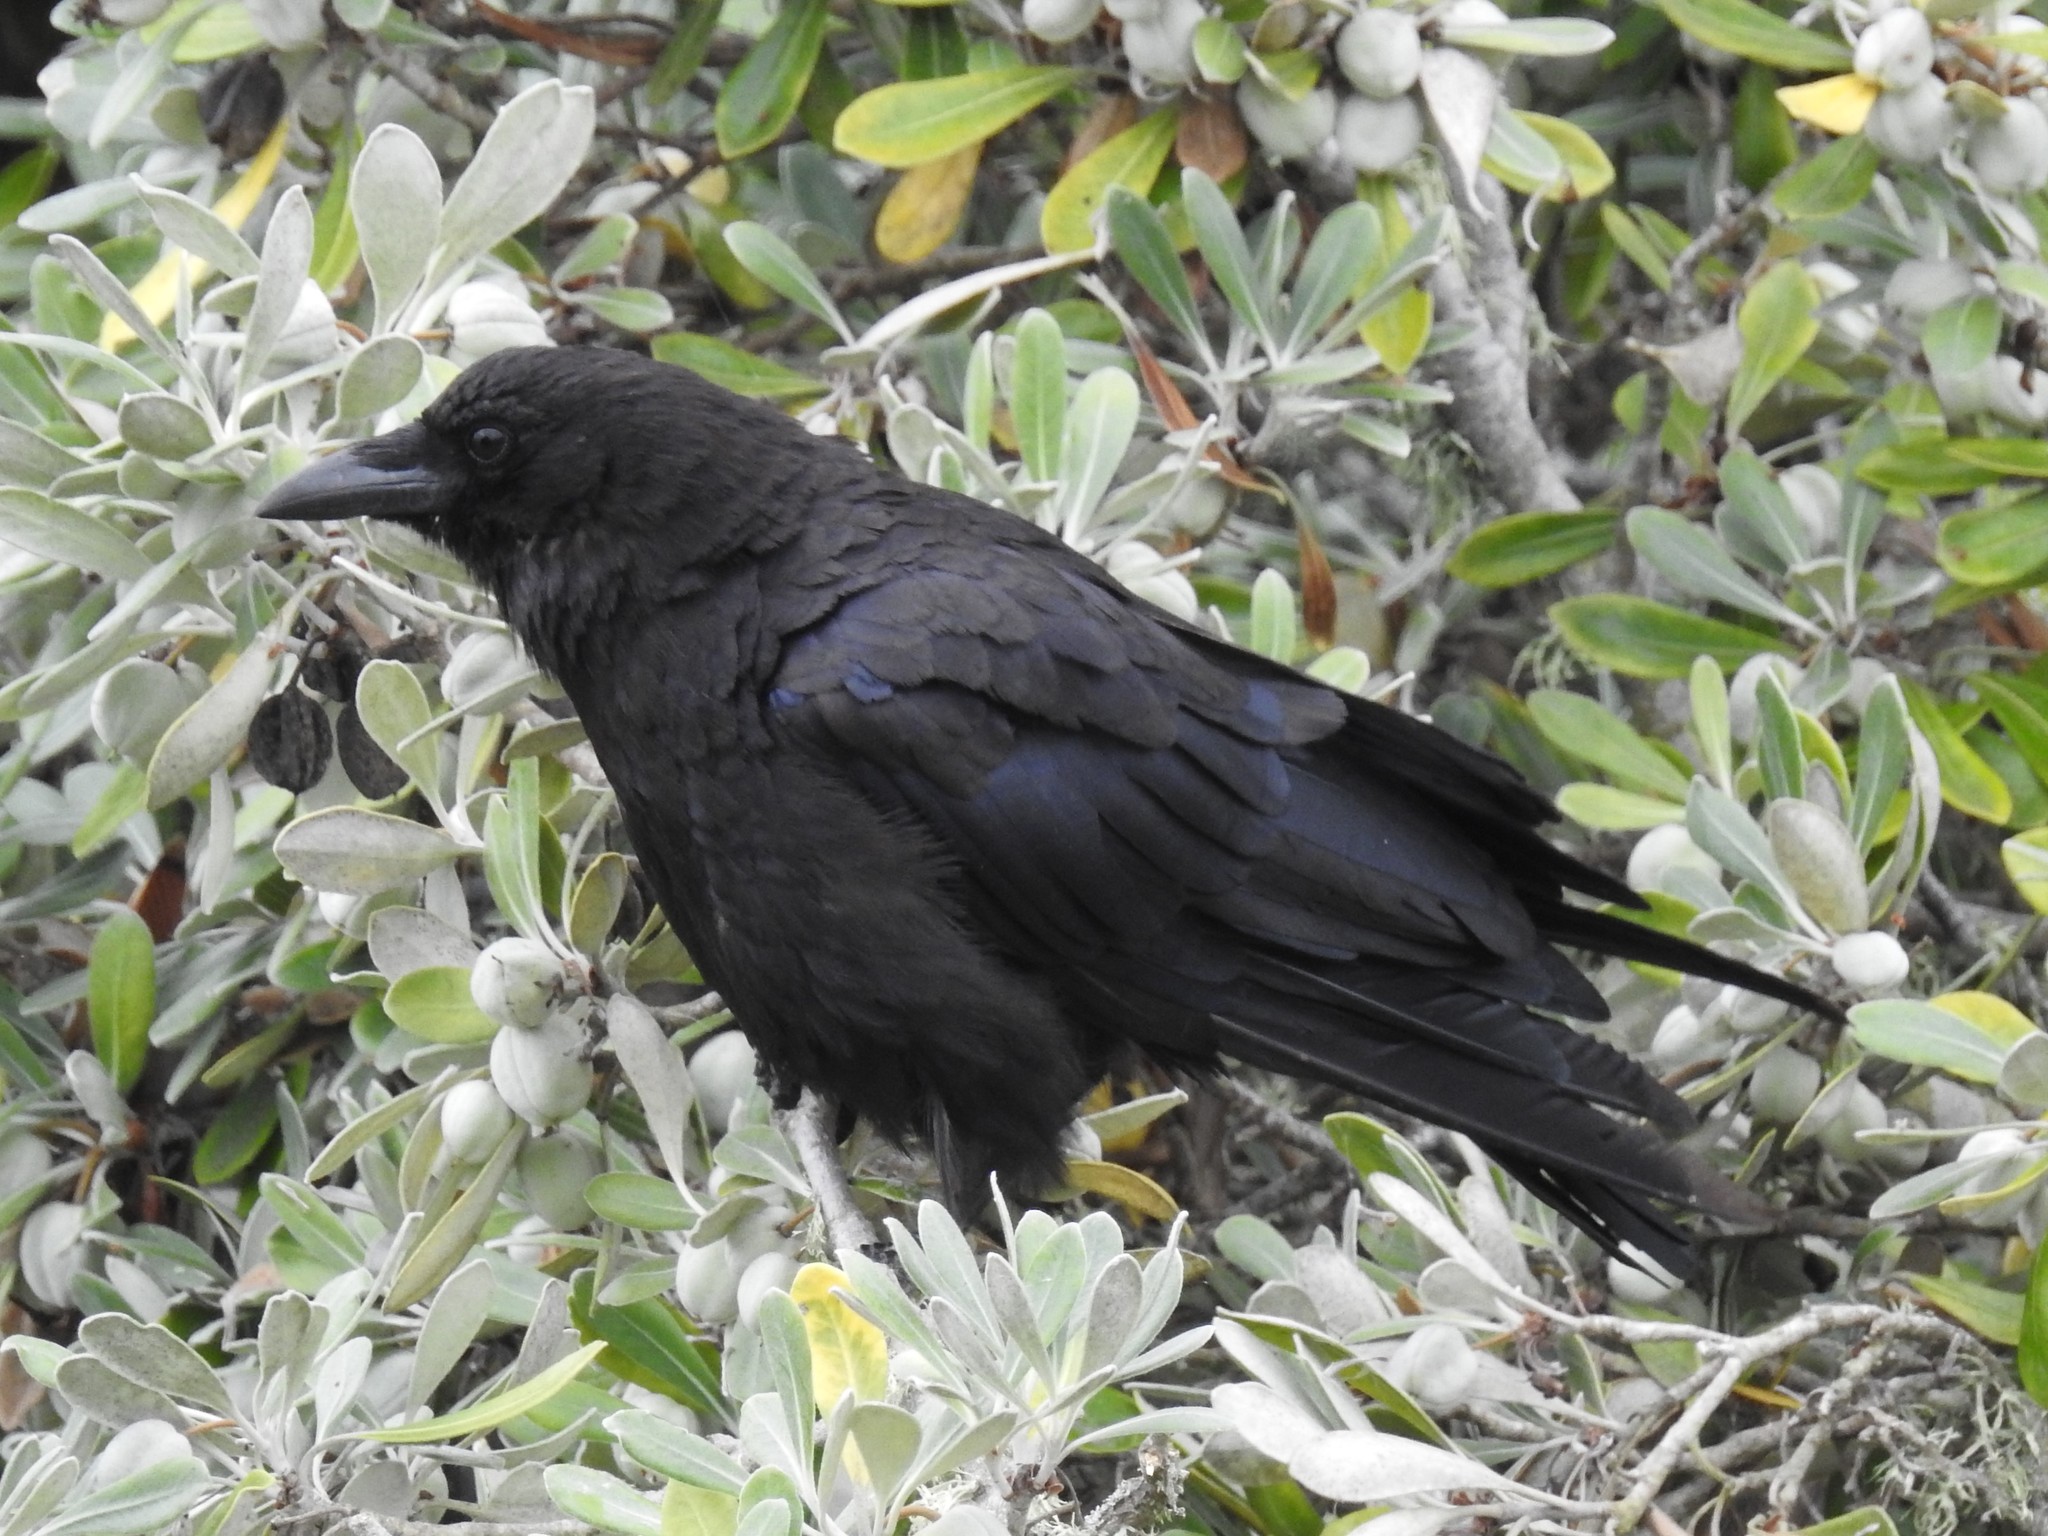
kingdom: Animalia
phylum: Chordata
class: Aves
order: Passeriformes
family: Corvidae
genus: Corvus
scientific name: Corvus corax
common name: Common raven
